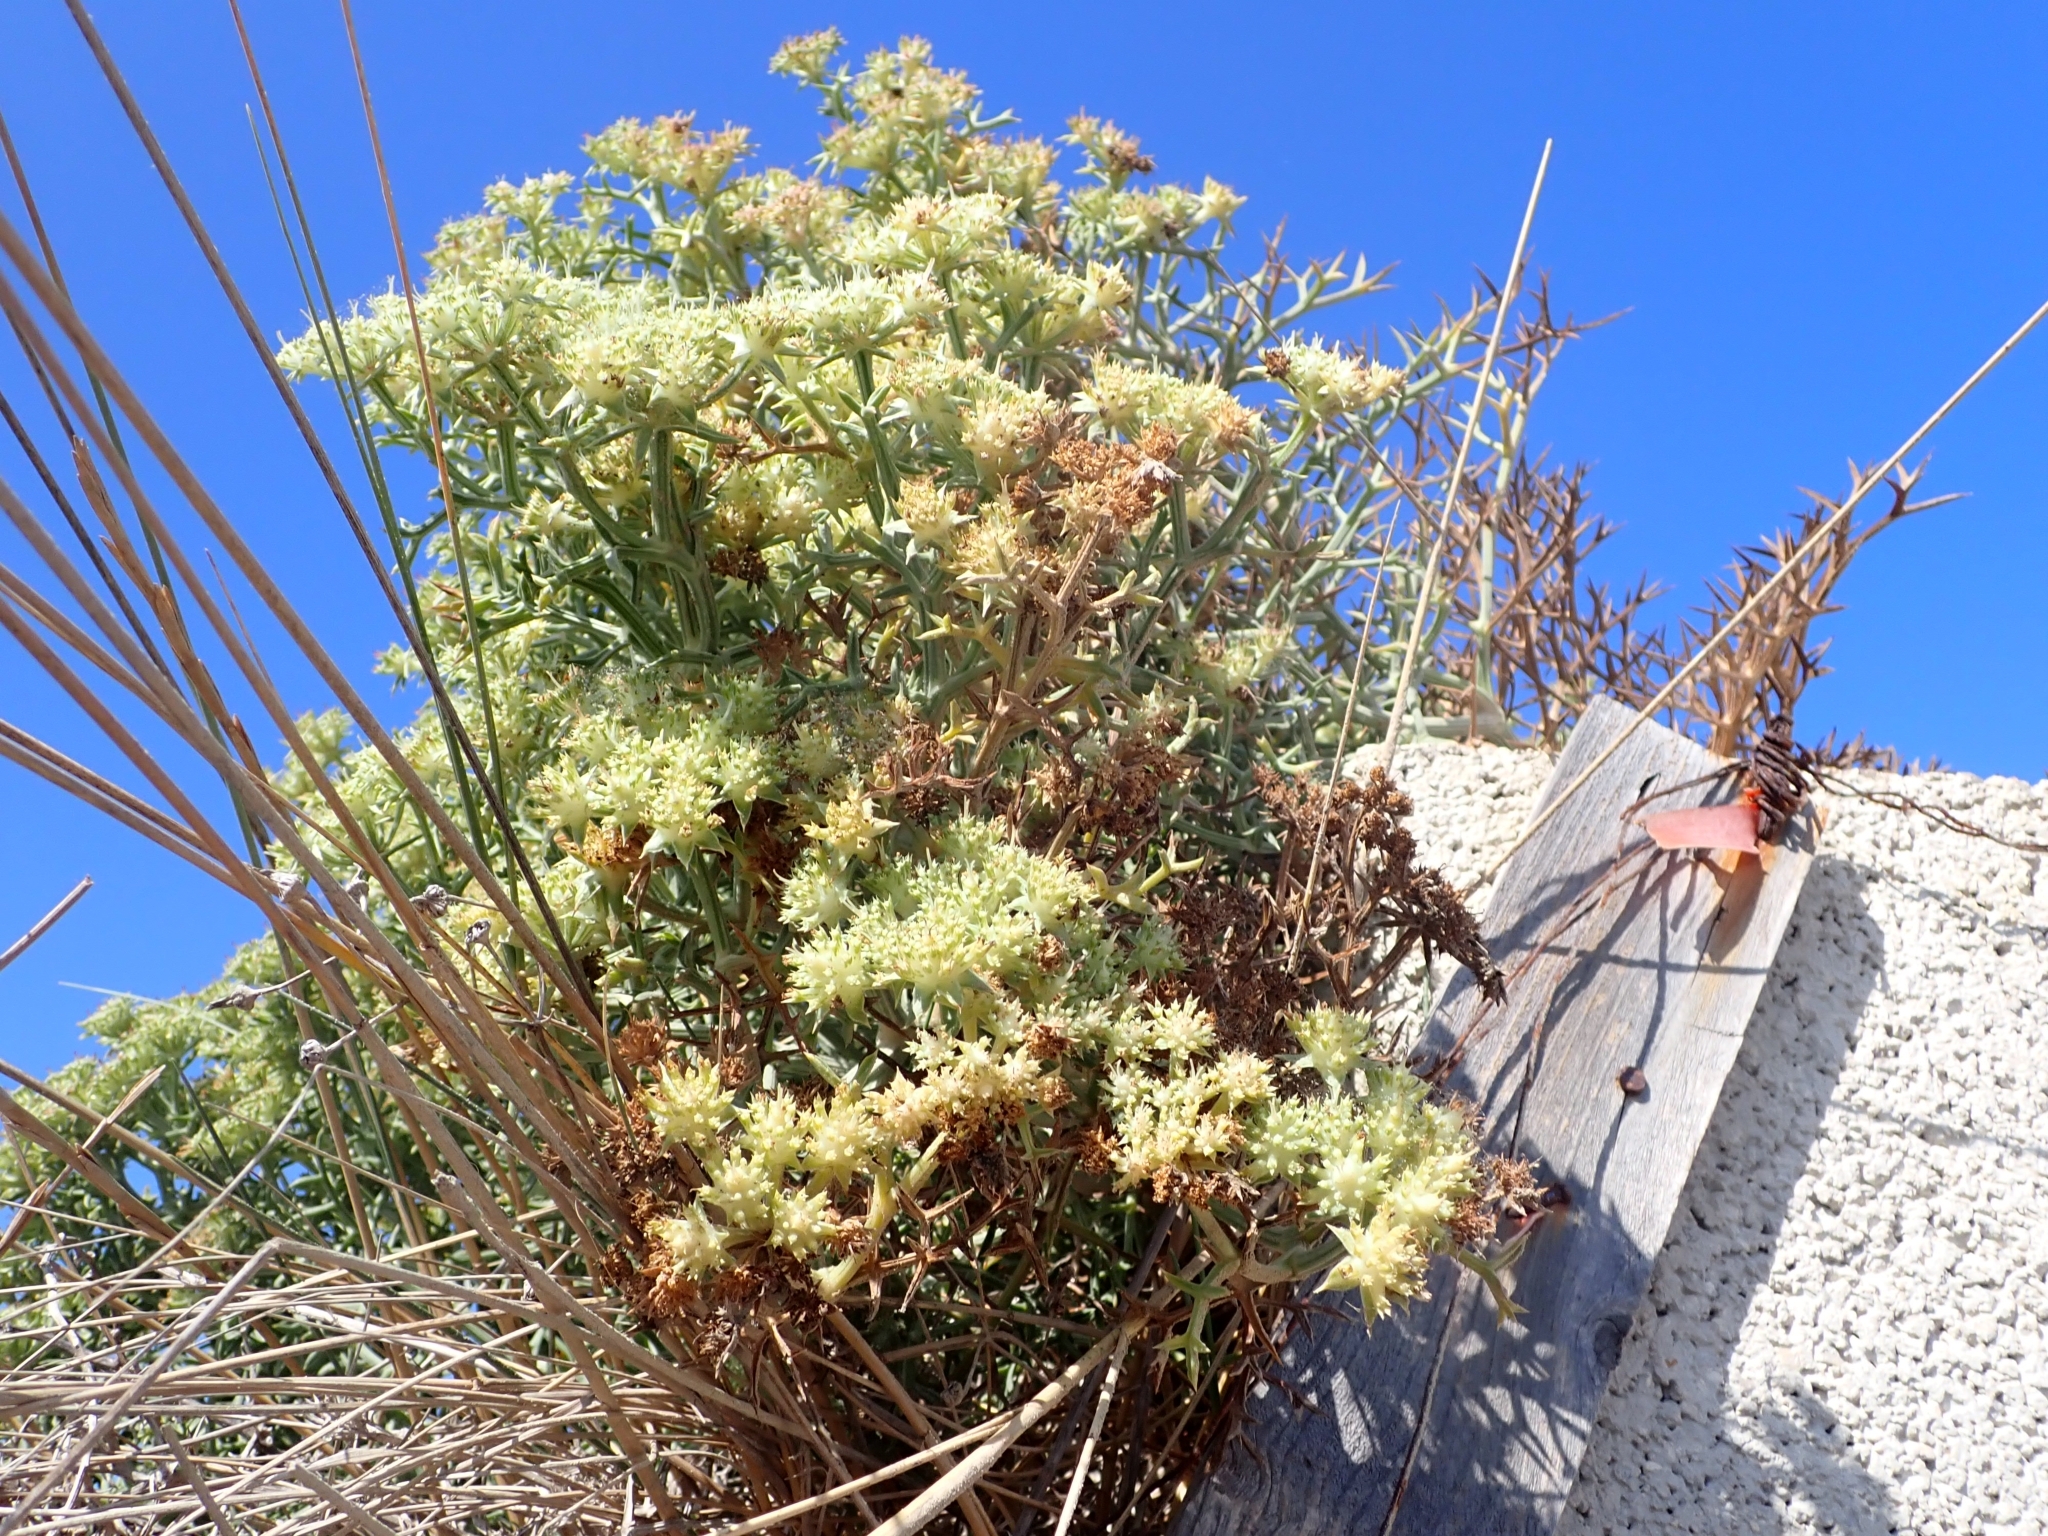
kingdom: Plantae
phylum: Tracheophyta
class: Magnoliopsida
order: Apiales
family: Apiaceae
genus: Echinophora
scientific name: Echinophora spinosa
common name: Prickly samphire
